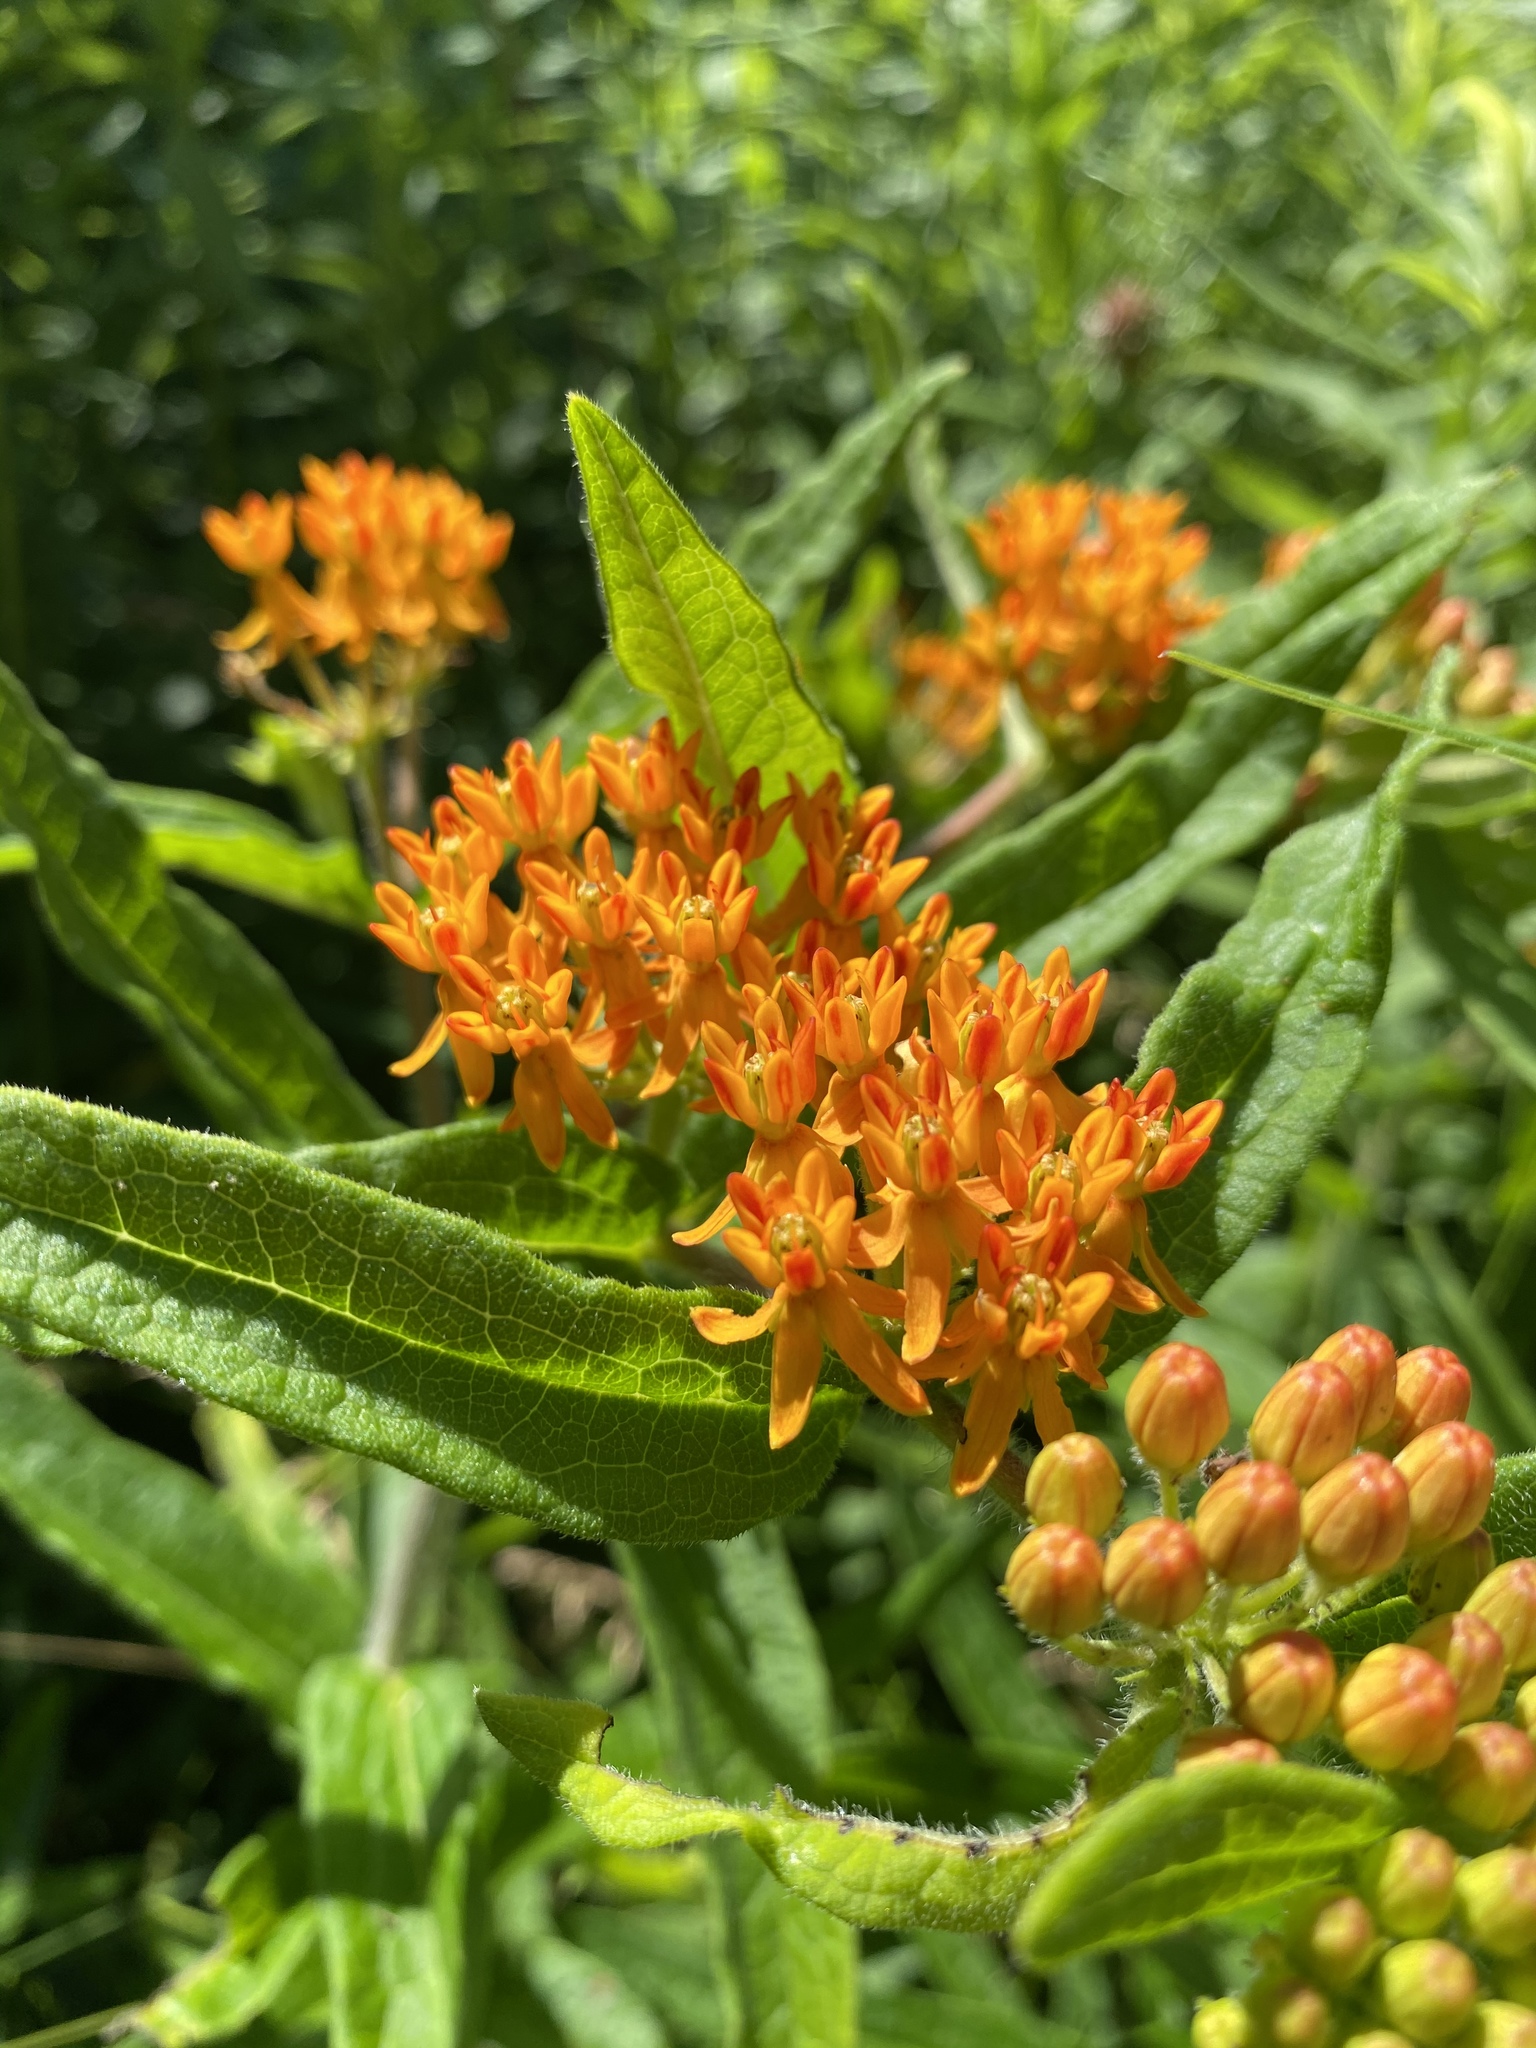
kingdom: Plantae
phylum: Tracheophyta
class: Magnoliopsida
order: Gentianales
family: Apocynaceae
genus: Asclepias
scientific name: Asclepias tuberosa
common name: Butterfly milkweed
